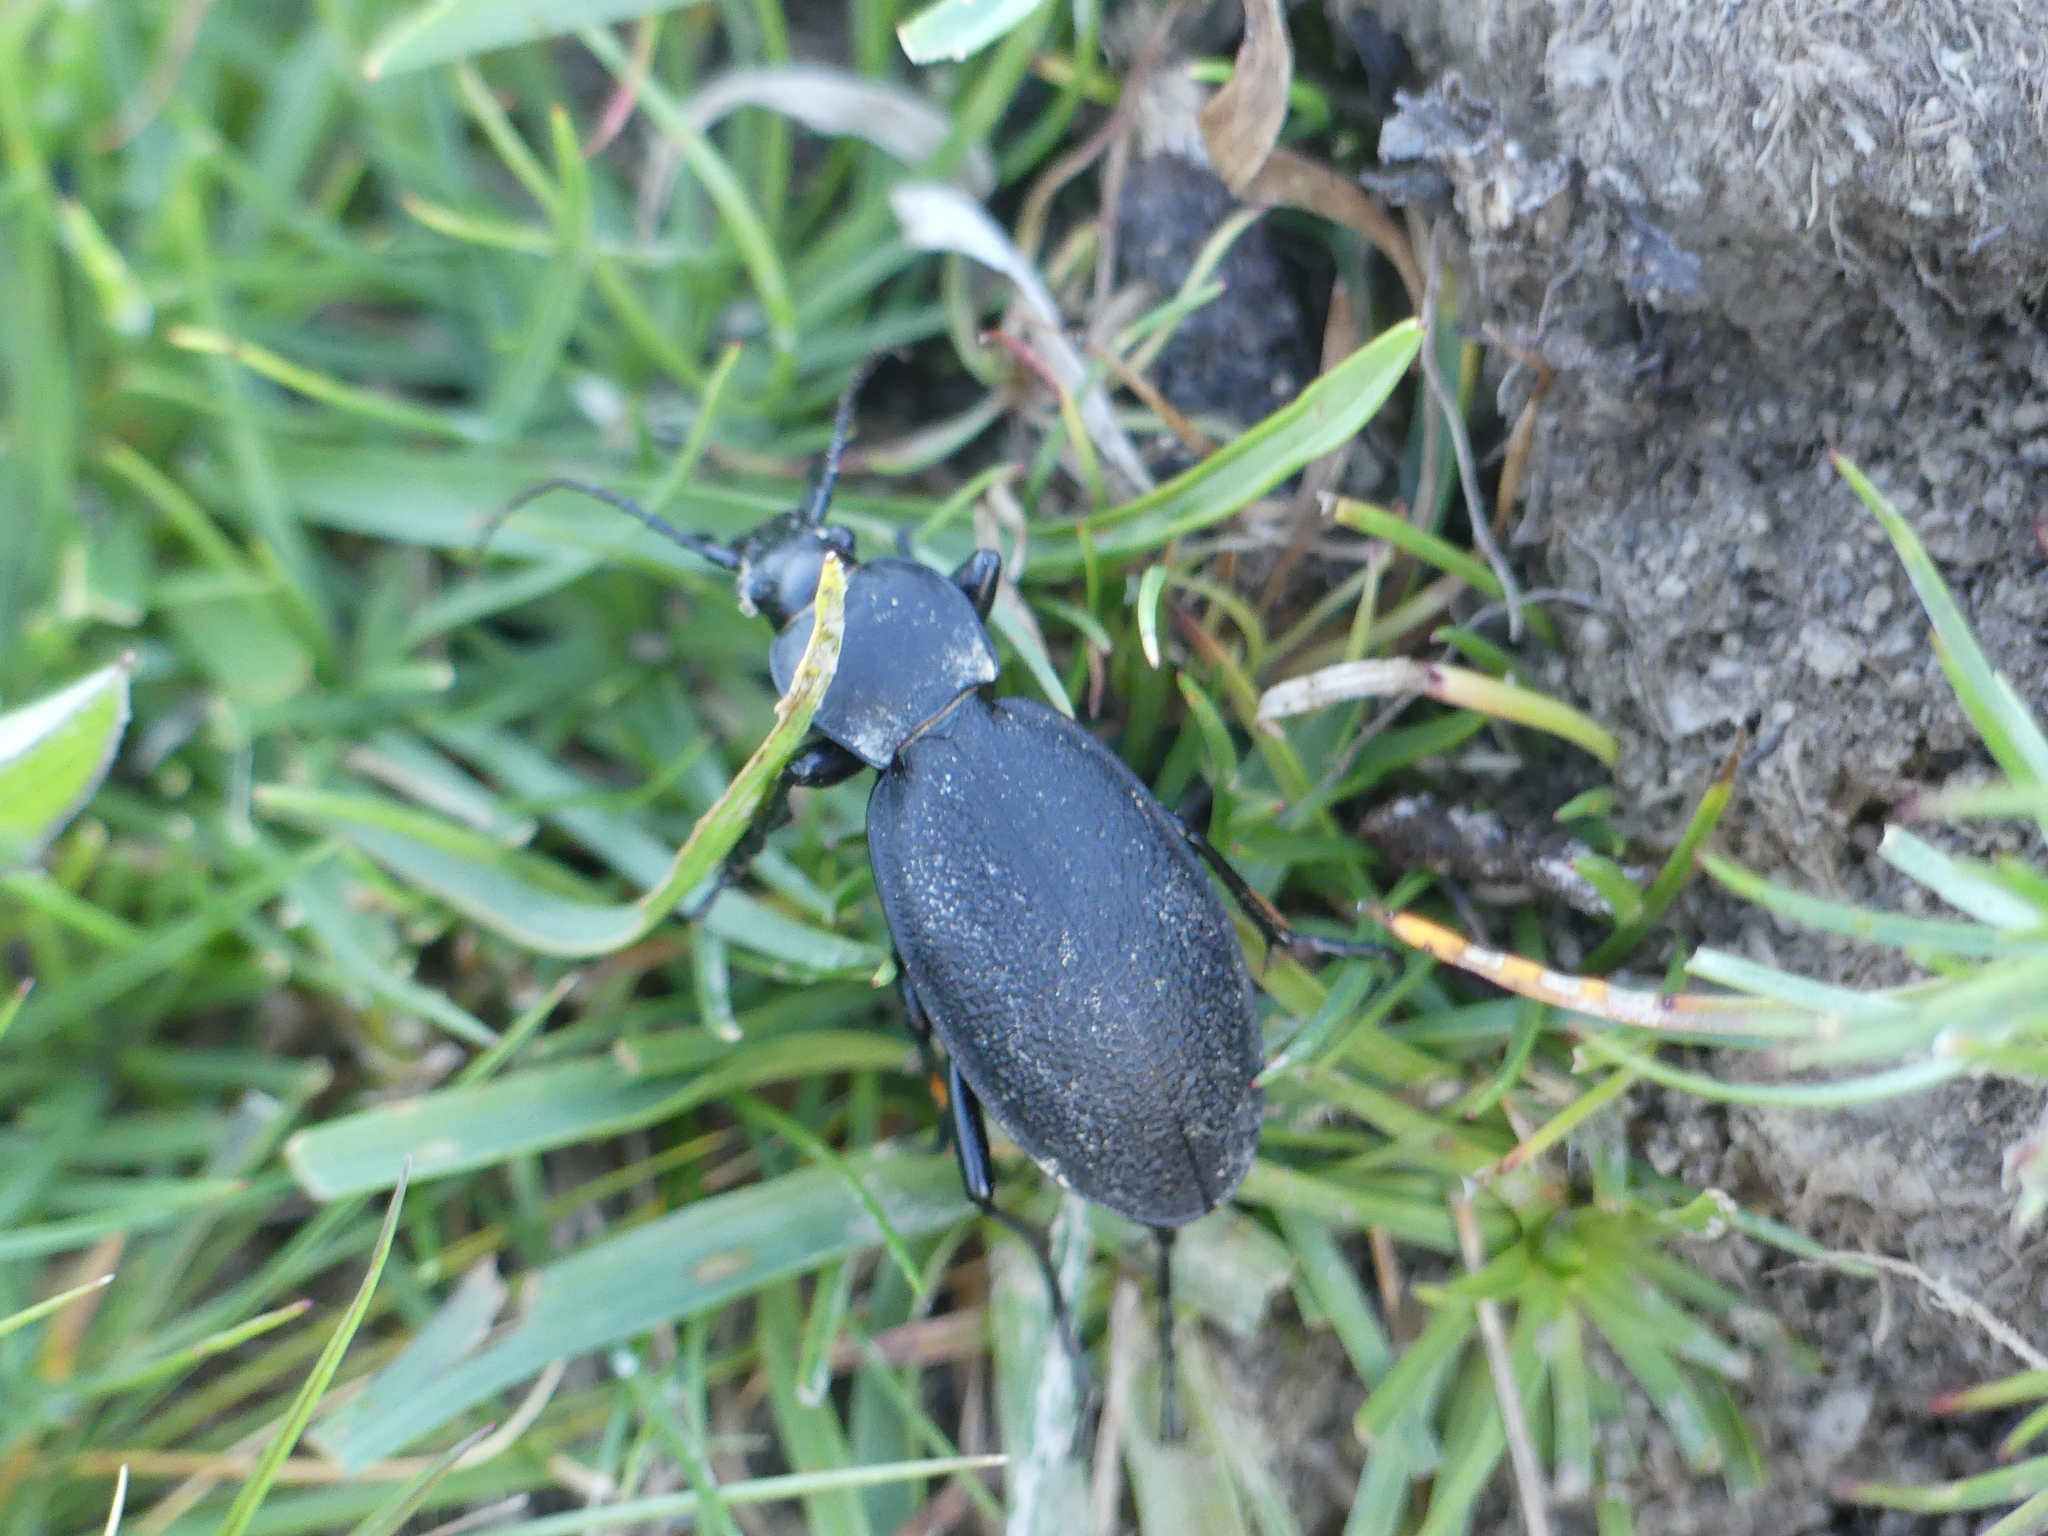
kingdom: Animalia
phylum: Arthropoda
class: Insecta
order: Coleoptera
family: Carabidae
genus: Carabus
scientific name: Carabus coriaceus
